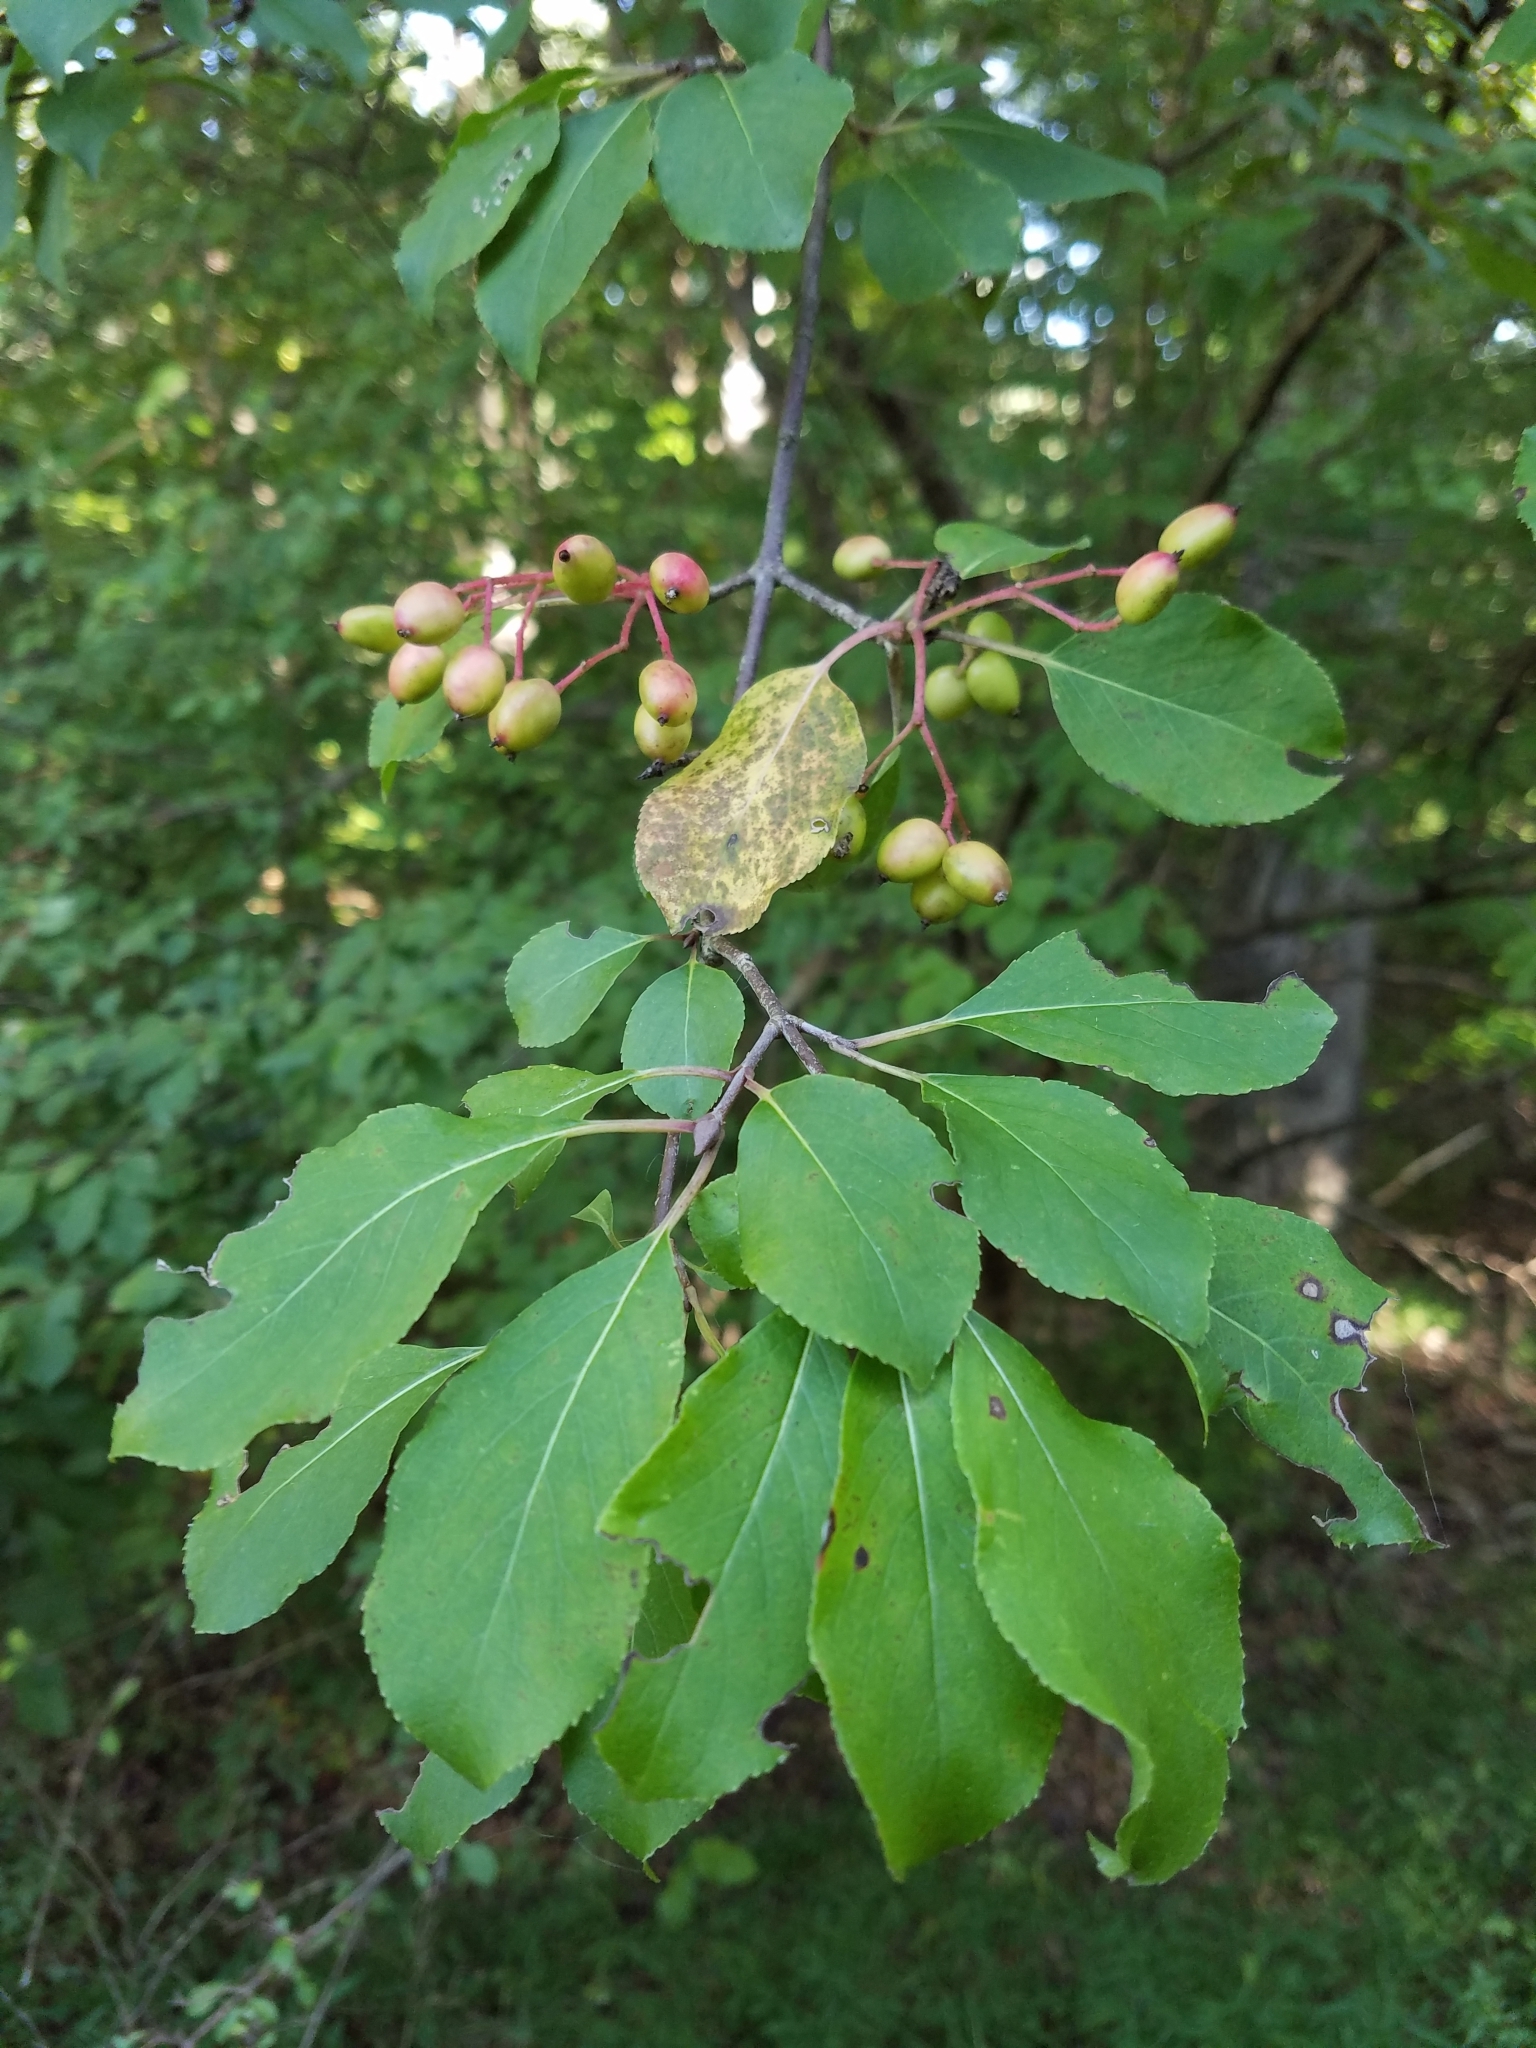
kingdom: Plantae
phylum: Tracheophyta
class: Magnoliopsida
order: Dipsacales
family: Viburnaceae
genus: Viburnum
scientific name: Viburnum prunifolium
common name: Black haw
